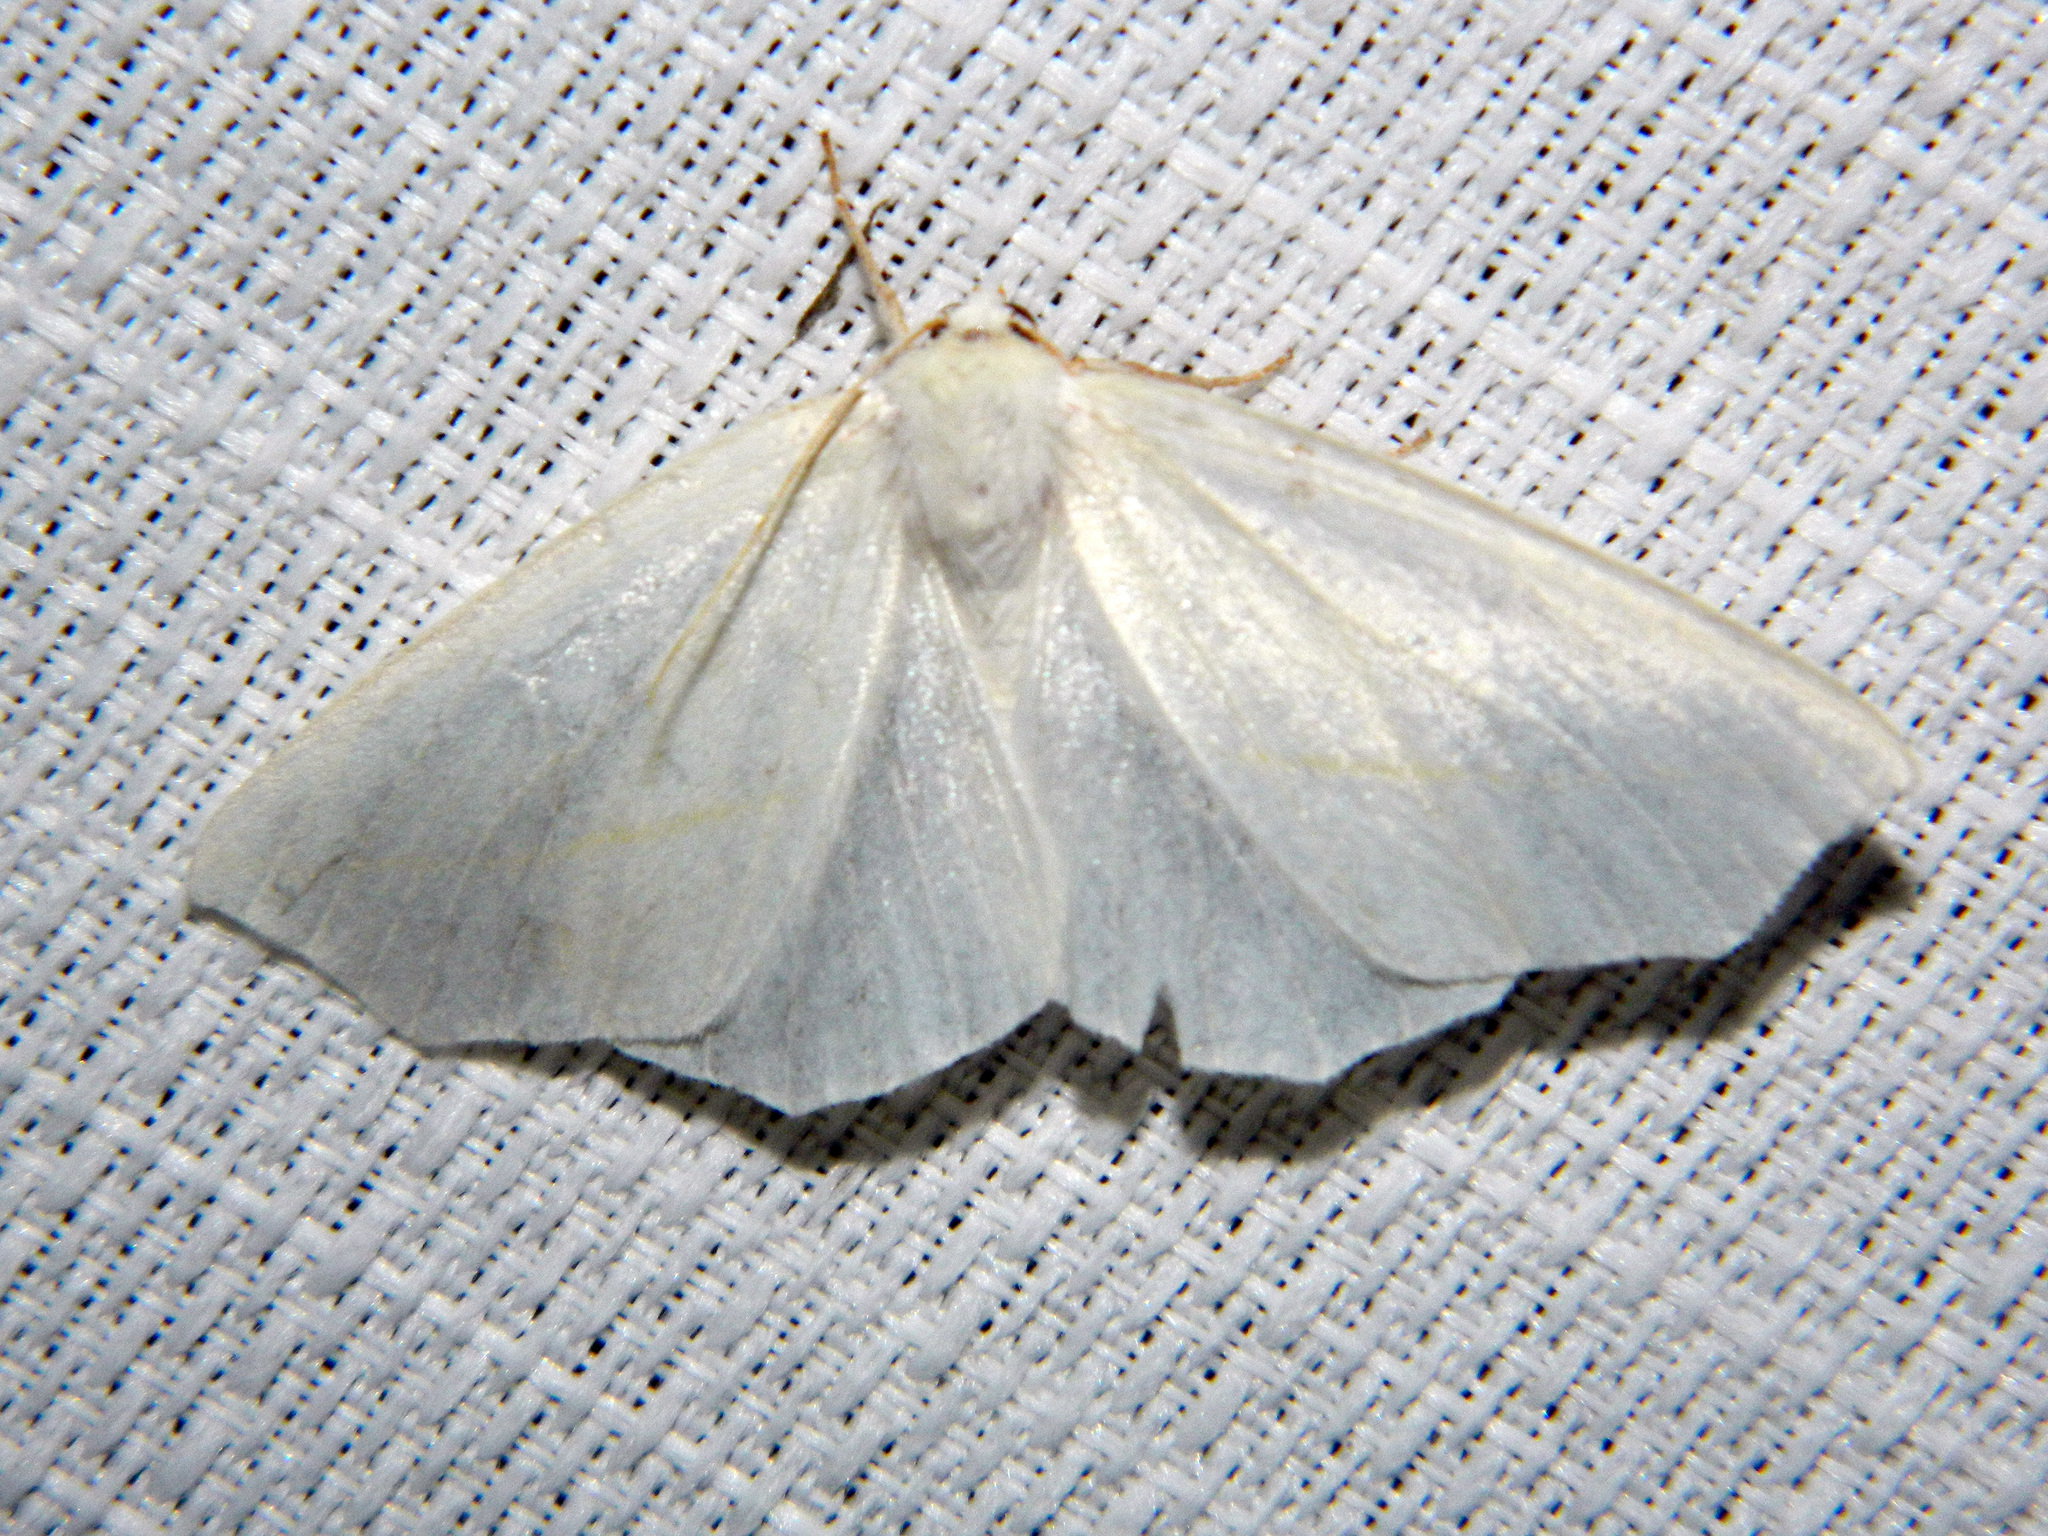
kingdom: Animalia
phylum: Arthropoda
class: Insecta
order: Lepidoptera
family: Geometridae
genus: Tetracis
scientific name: Tetracis cachexiata
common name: White slant-line
